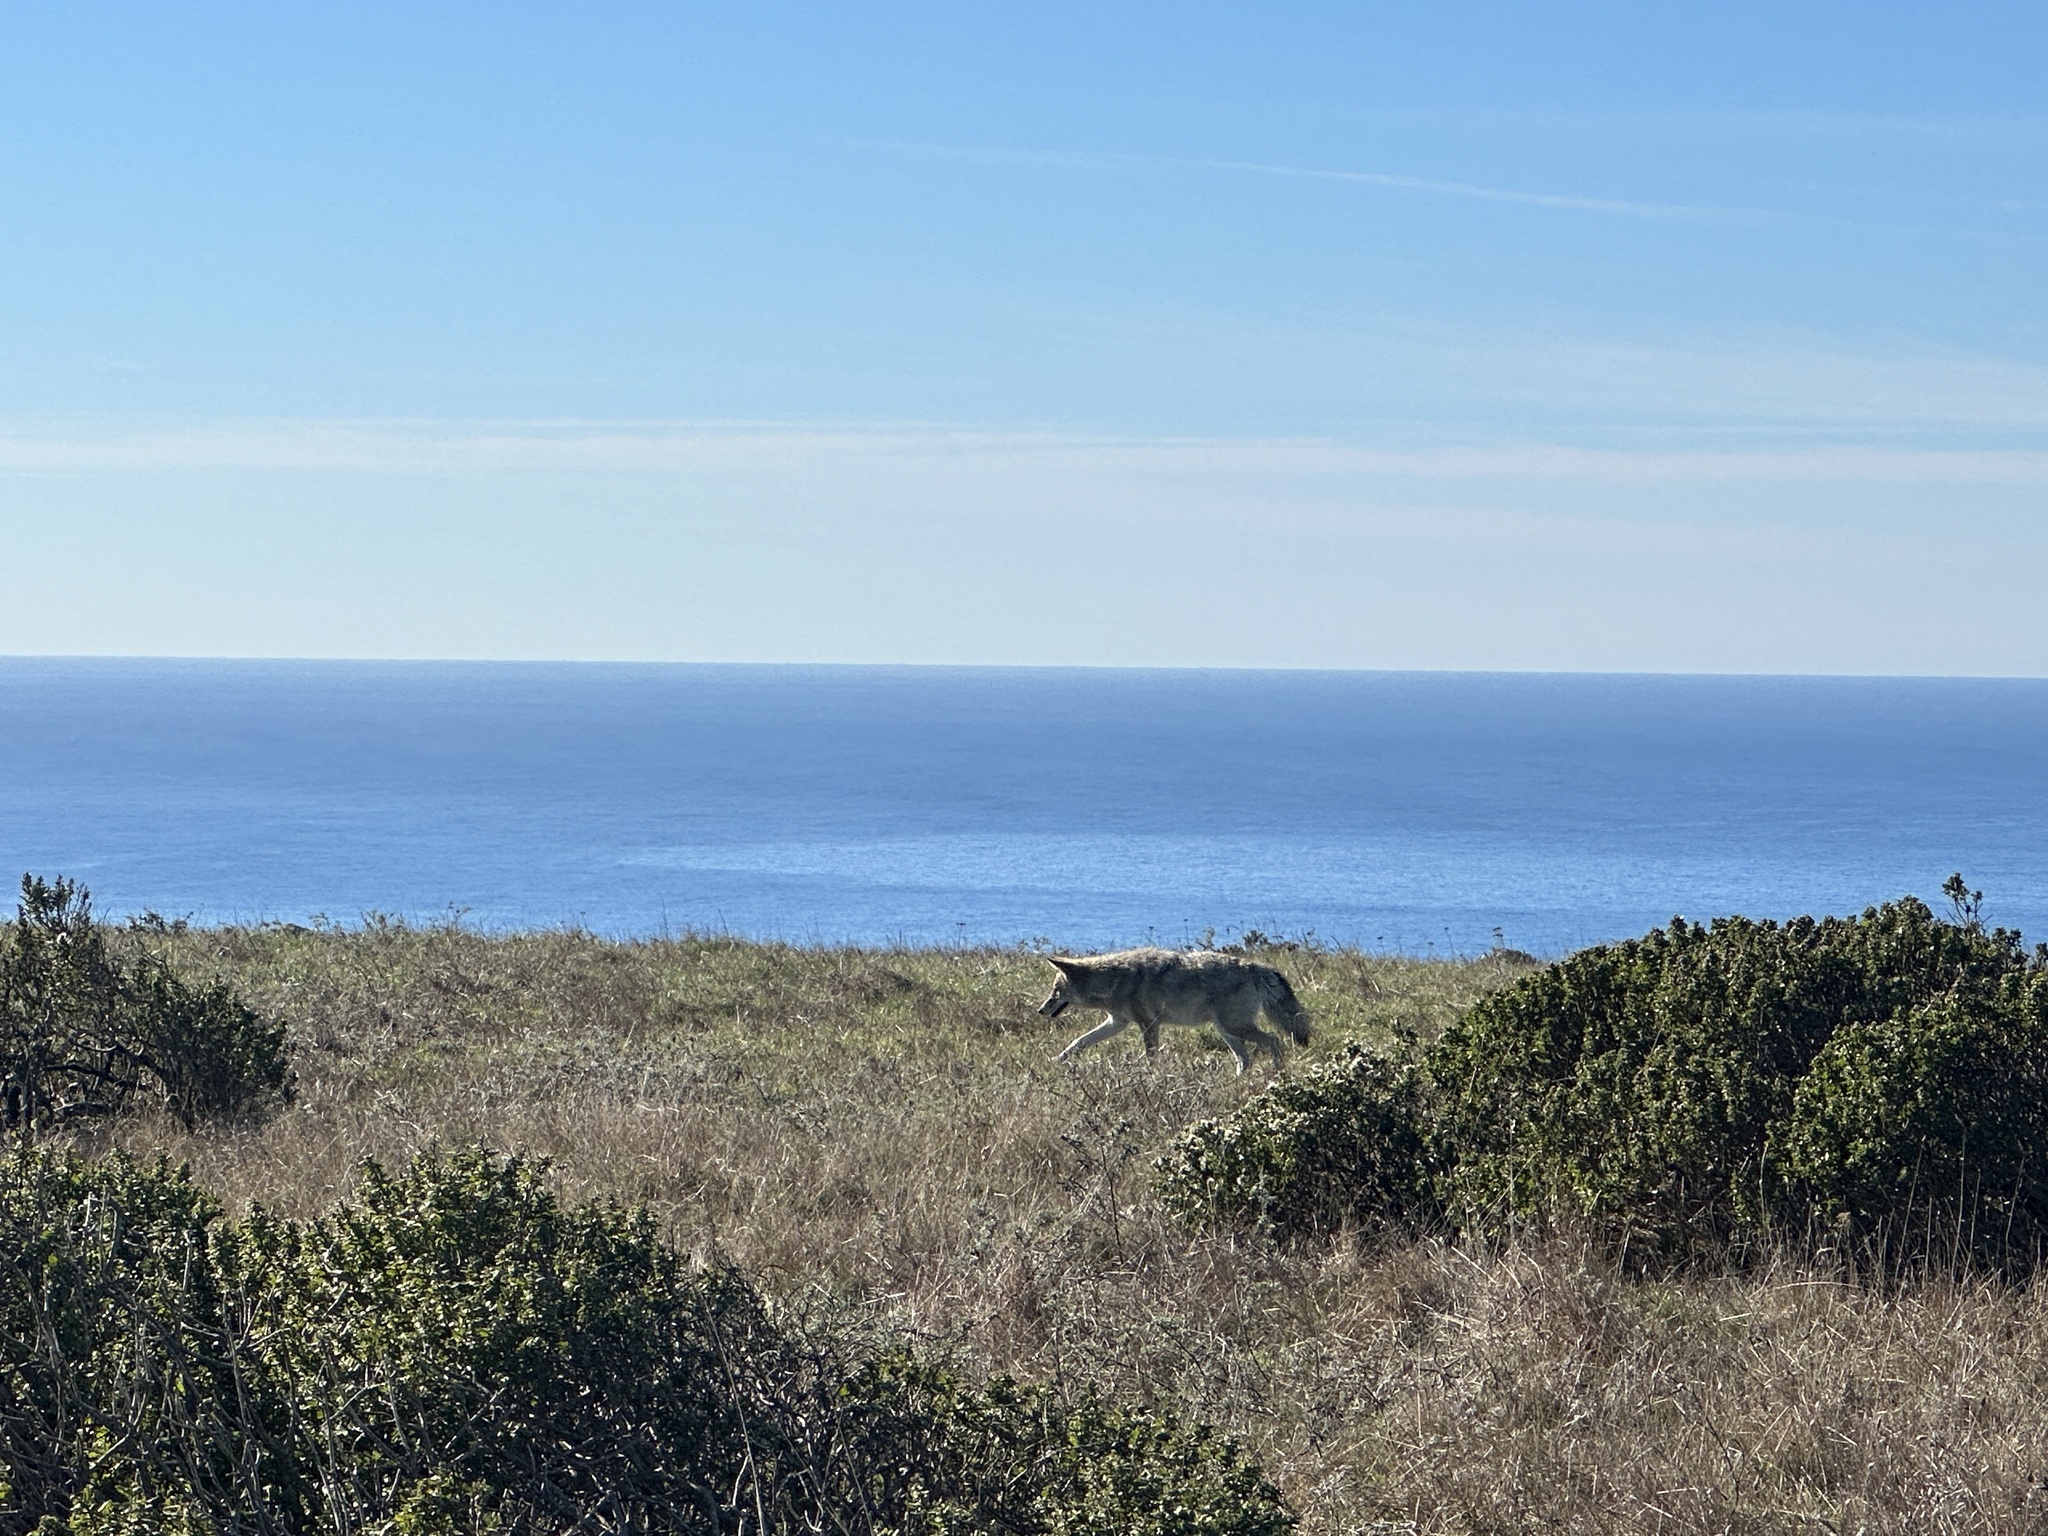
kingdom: Animalia
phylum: Chordata
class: Mammalia
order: Carnivora
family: Canidae
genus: Canis
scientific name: Canis latrans
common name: Coyote
